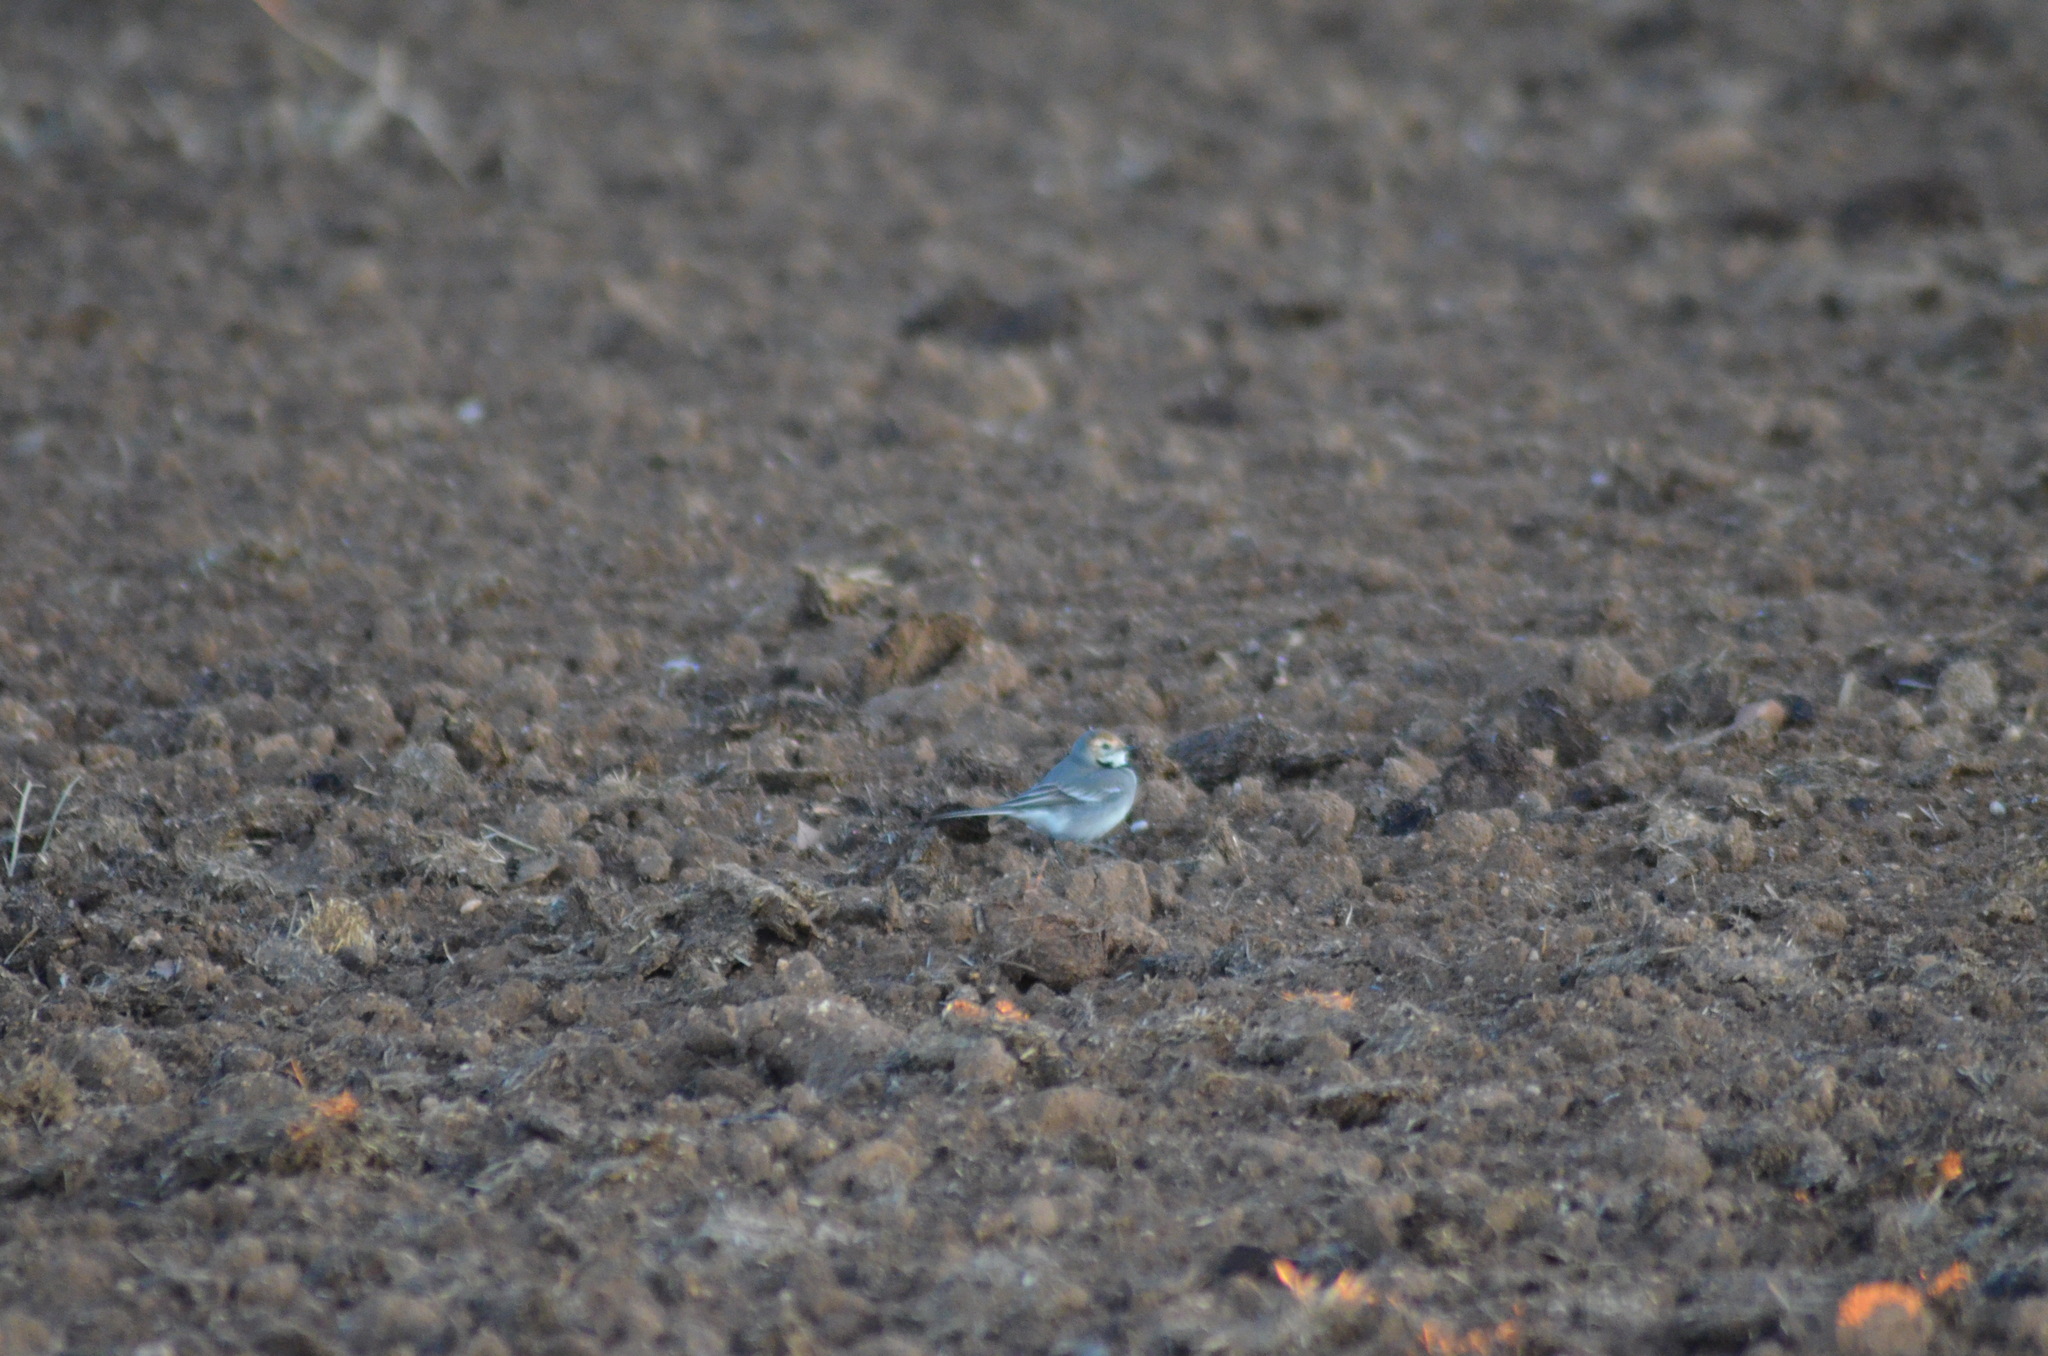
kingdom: Animalia
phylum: Chordata
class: Aves
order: Passeriformes
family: Motacillidae
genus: Motacilla
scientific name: Motacilla alba
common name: White wagtail
